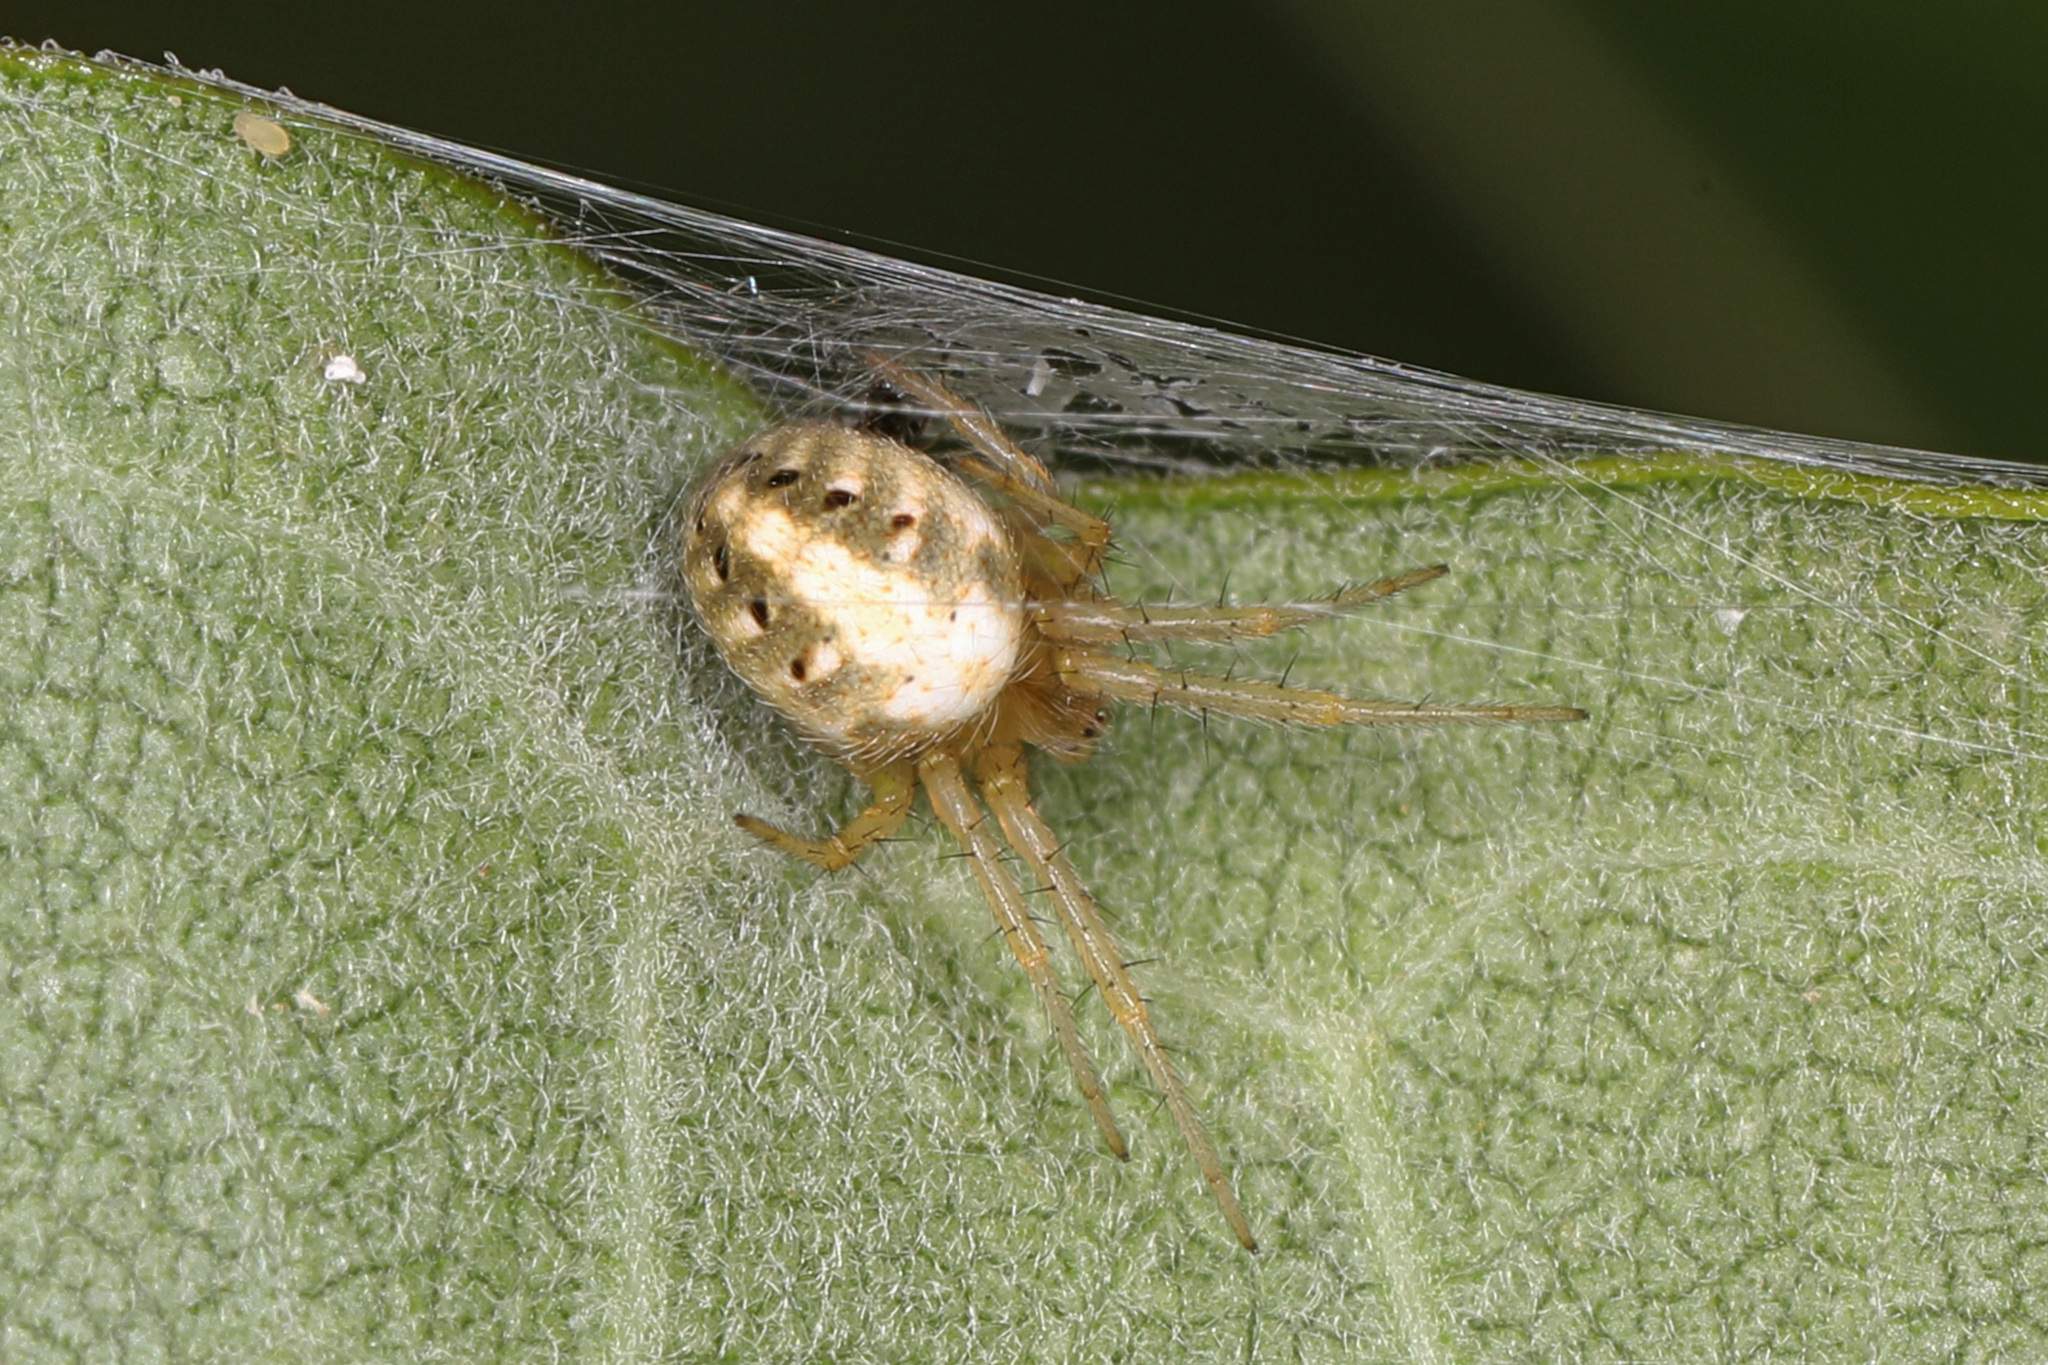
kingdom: Animalia
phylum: Arthropoda
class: Arachnida
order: Araneae
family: Araneidae
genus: Neoscona
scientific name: Neoscona arabesca
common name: Orb weavers
